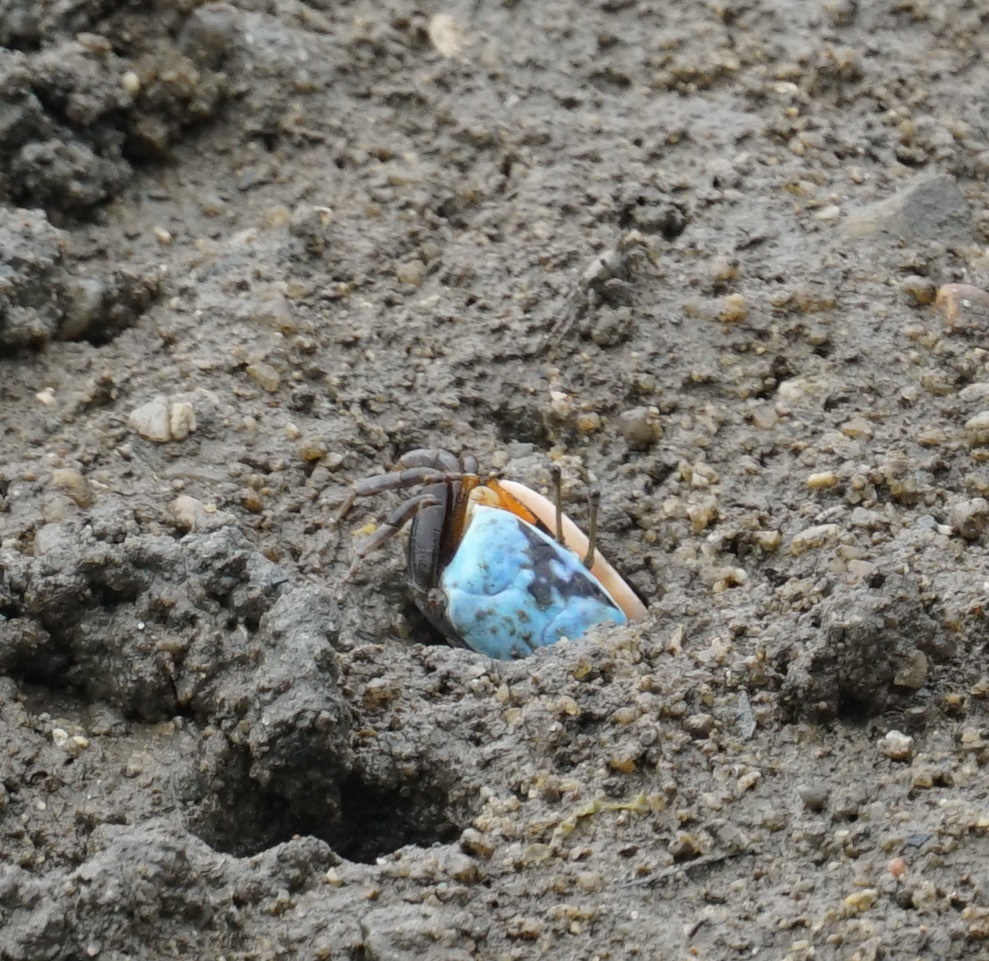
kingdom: Animalia
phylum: Arthropoda
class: Malacostraca
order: Decapoda
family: Ocypodidae
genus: Gelasimus
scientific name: Gelasimus vomeris
